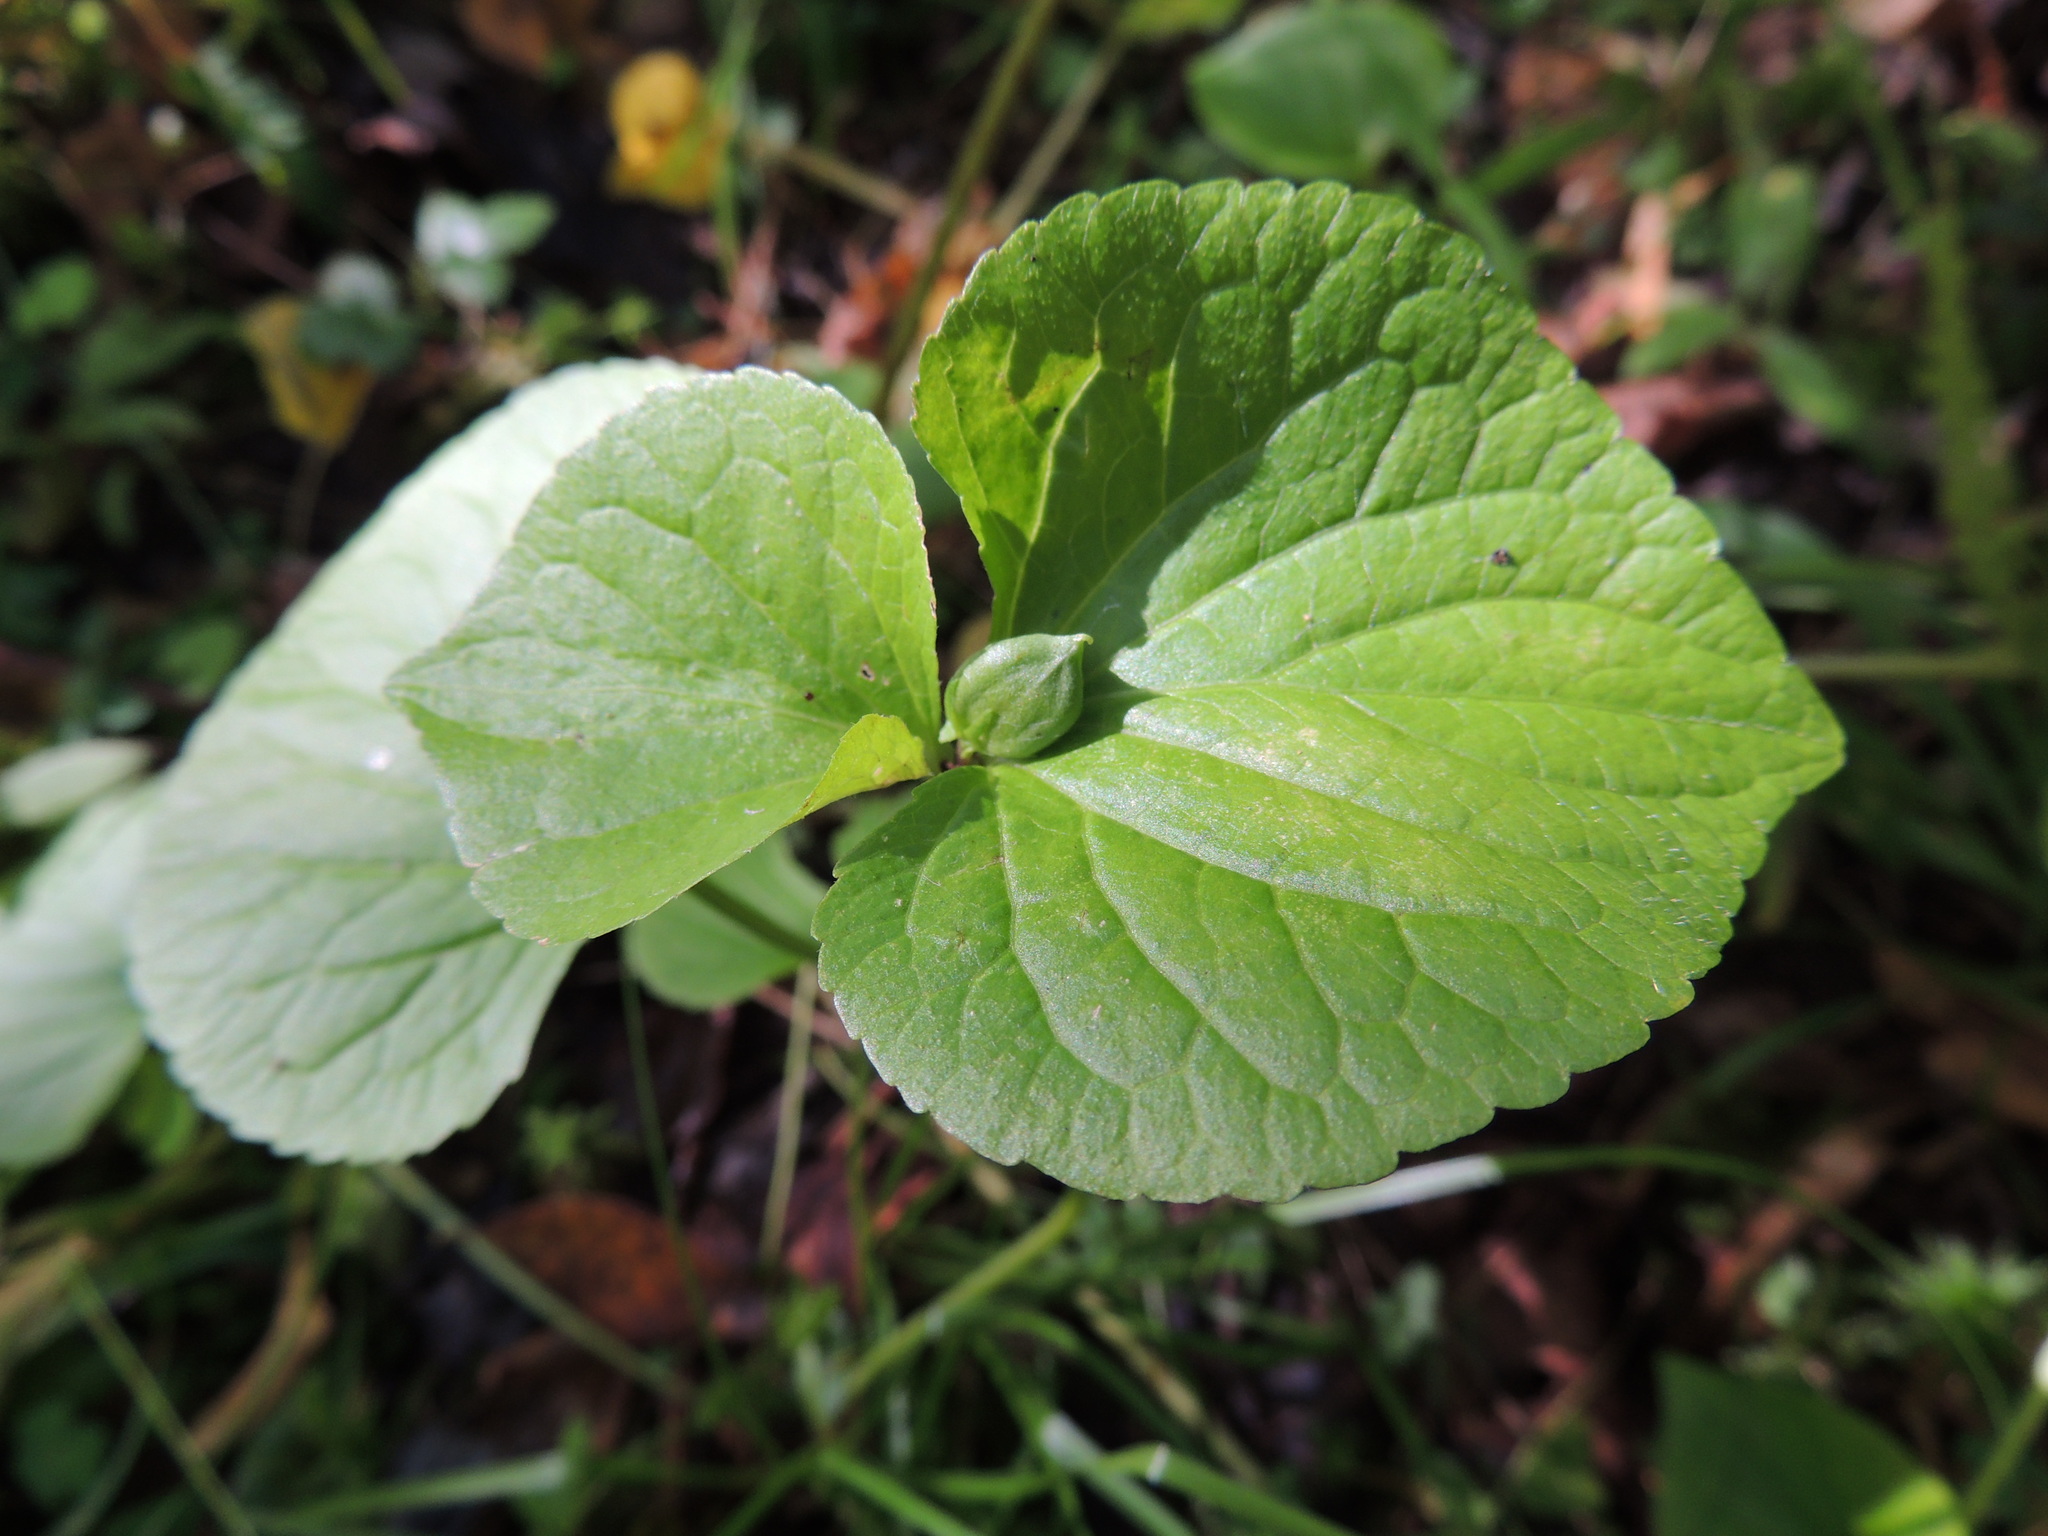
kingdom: Plantae
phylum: Tracheophyta
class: Magnoliopsida
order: Malpighiales
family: Violaceae
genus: Viola
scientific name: Viola mirabilis
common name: Wonder violet
